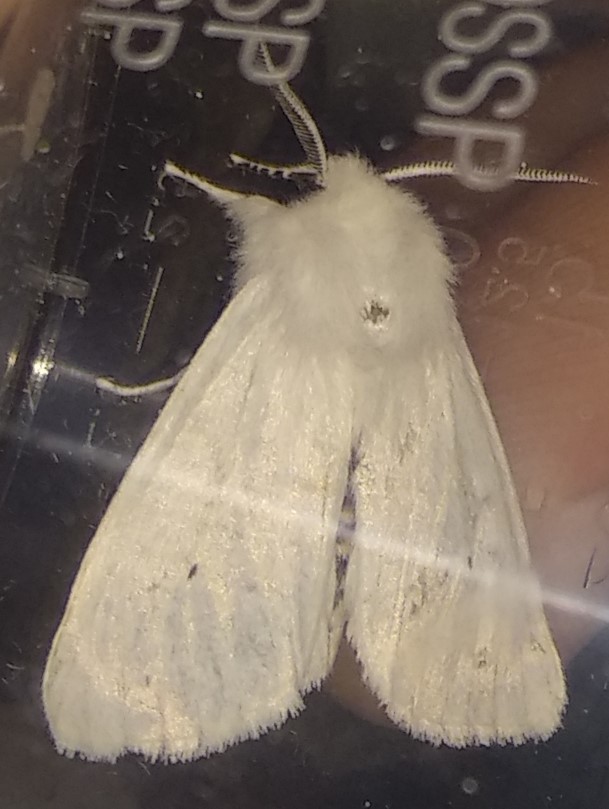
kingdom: Animalia
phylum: Arthropoda
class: Insecta
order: Lepidoptera
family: Erebidae
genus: Spilosoma
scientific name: Spilosoma virginica
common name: Virginia tiger moth
